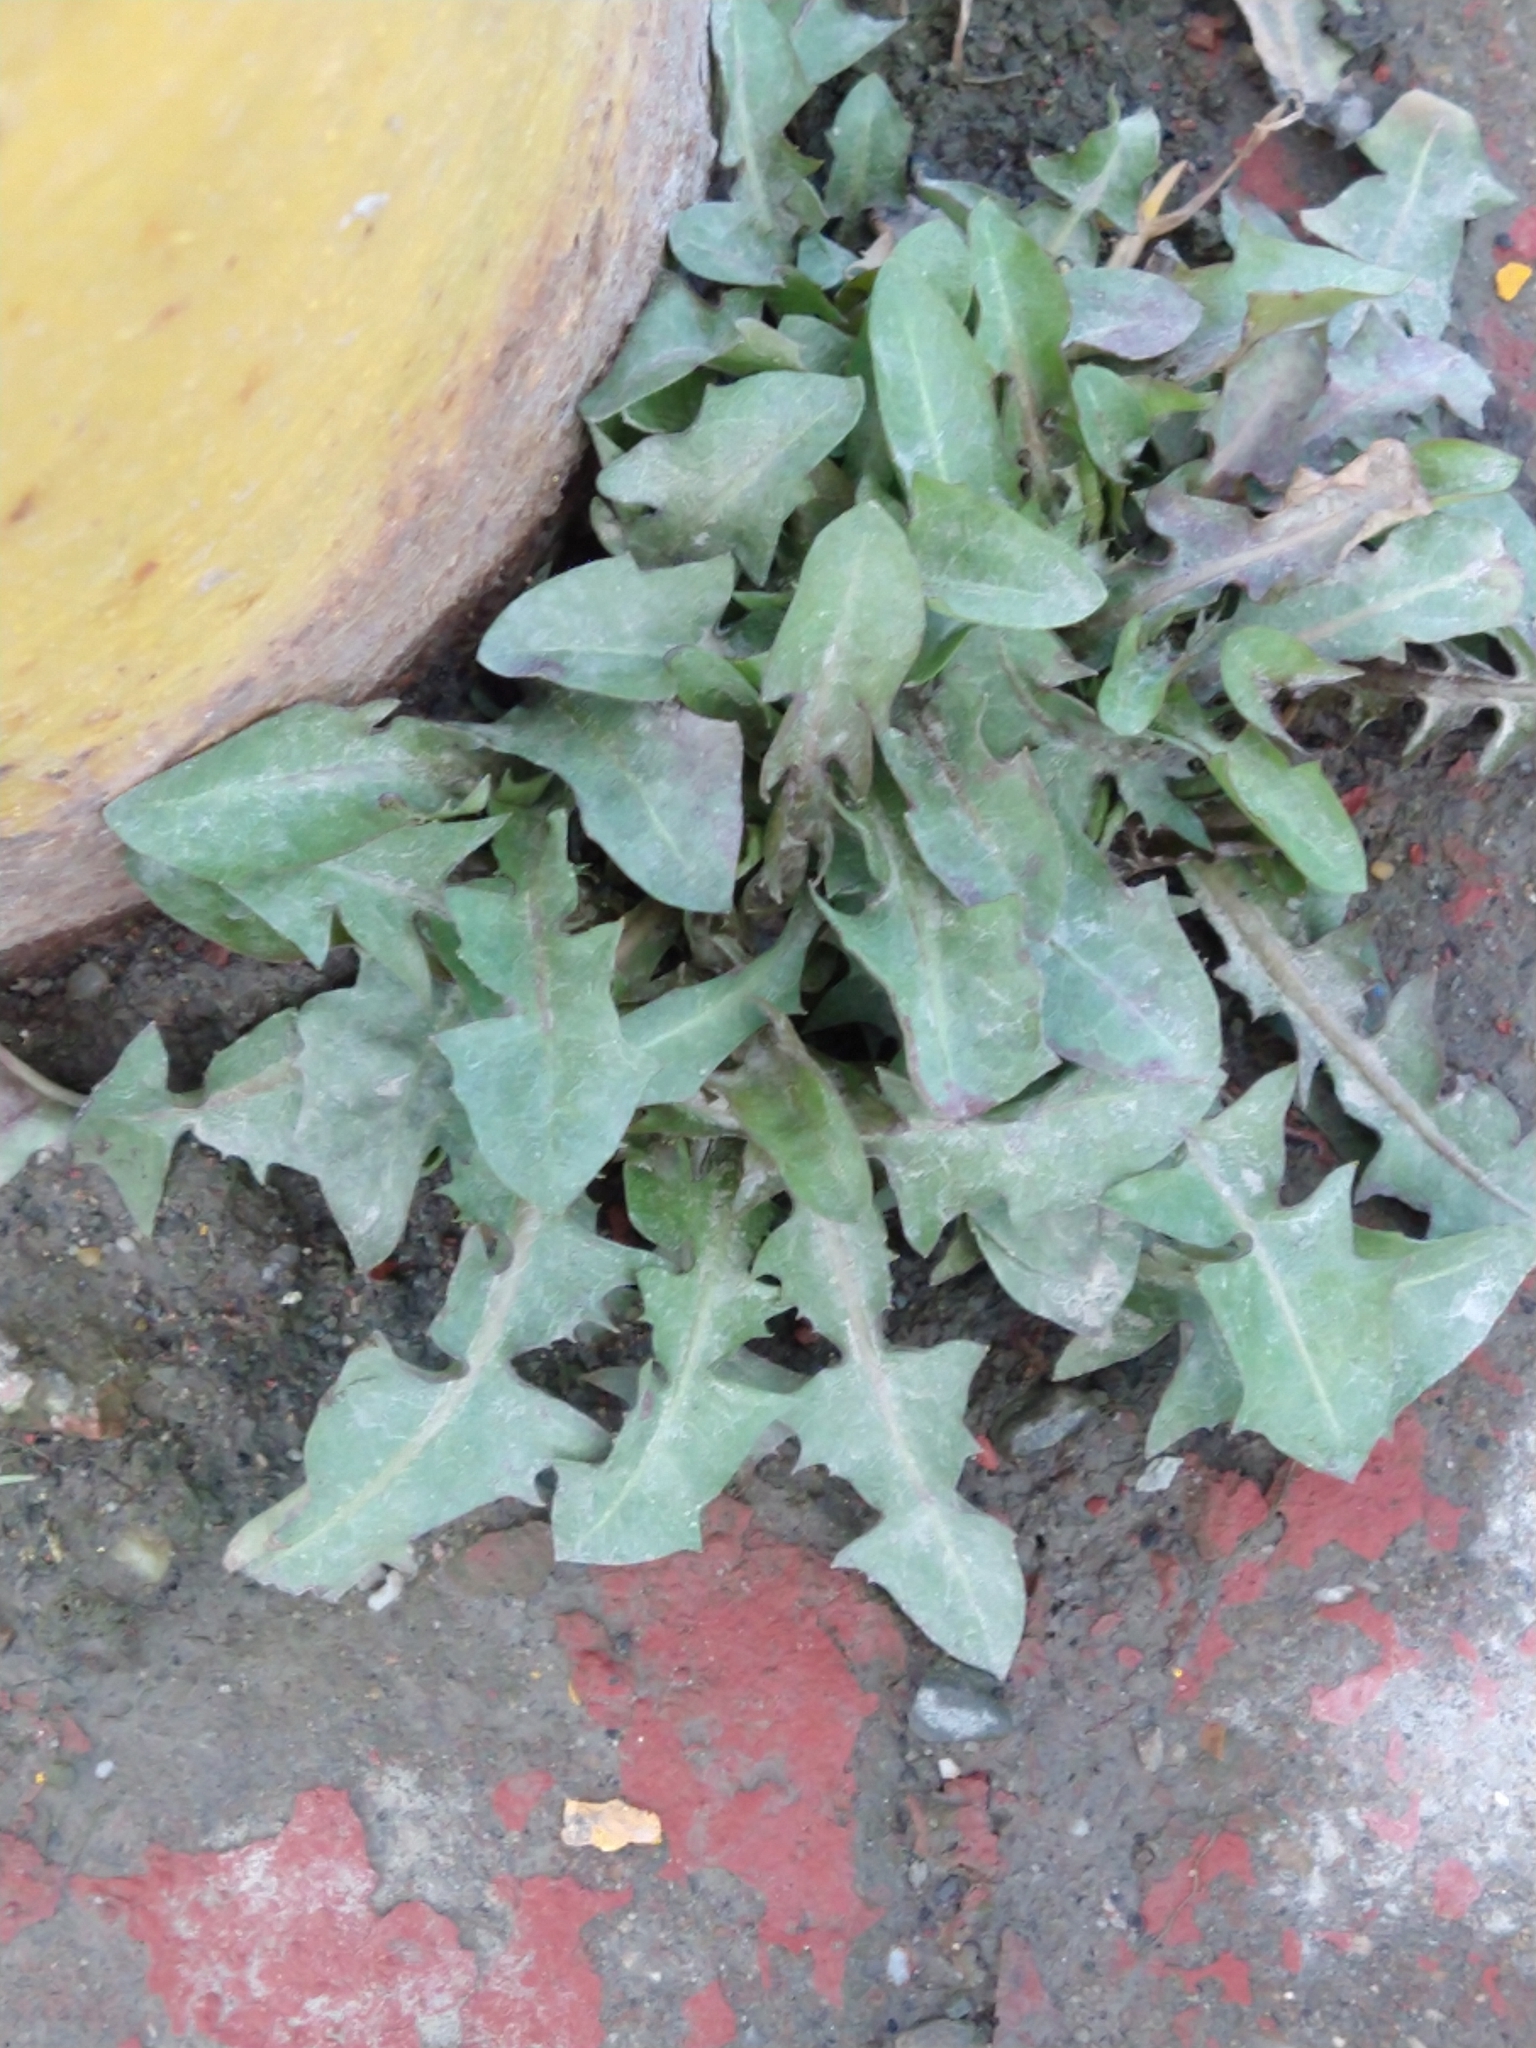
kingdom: Plantae
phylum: Tracheophyta
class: Magnoliopsida
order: Asterales
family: Asteraceae
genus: Taraxacum
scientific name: Taraxacum officinale
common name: Common dandelion
